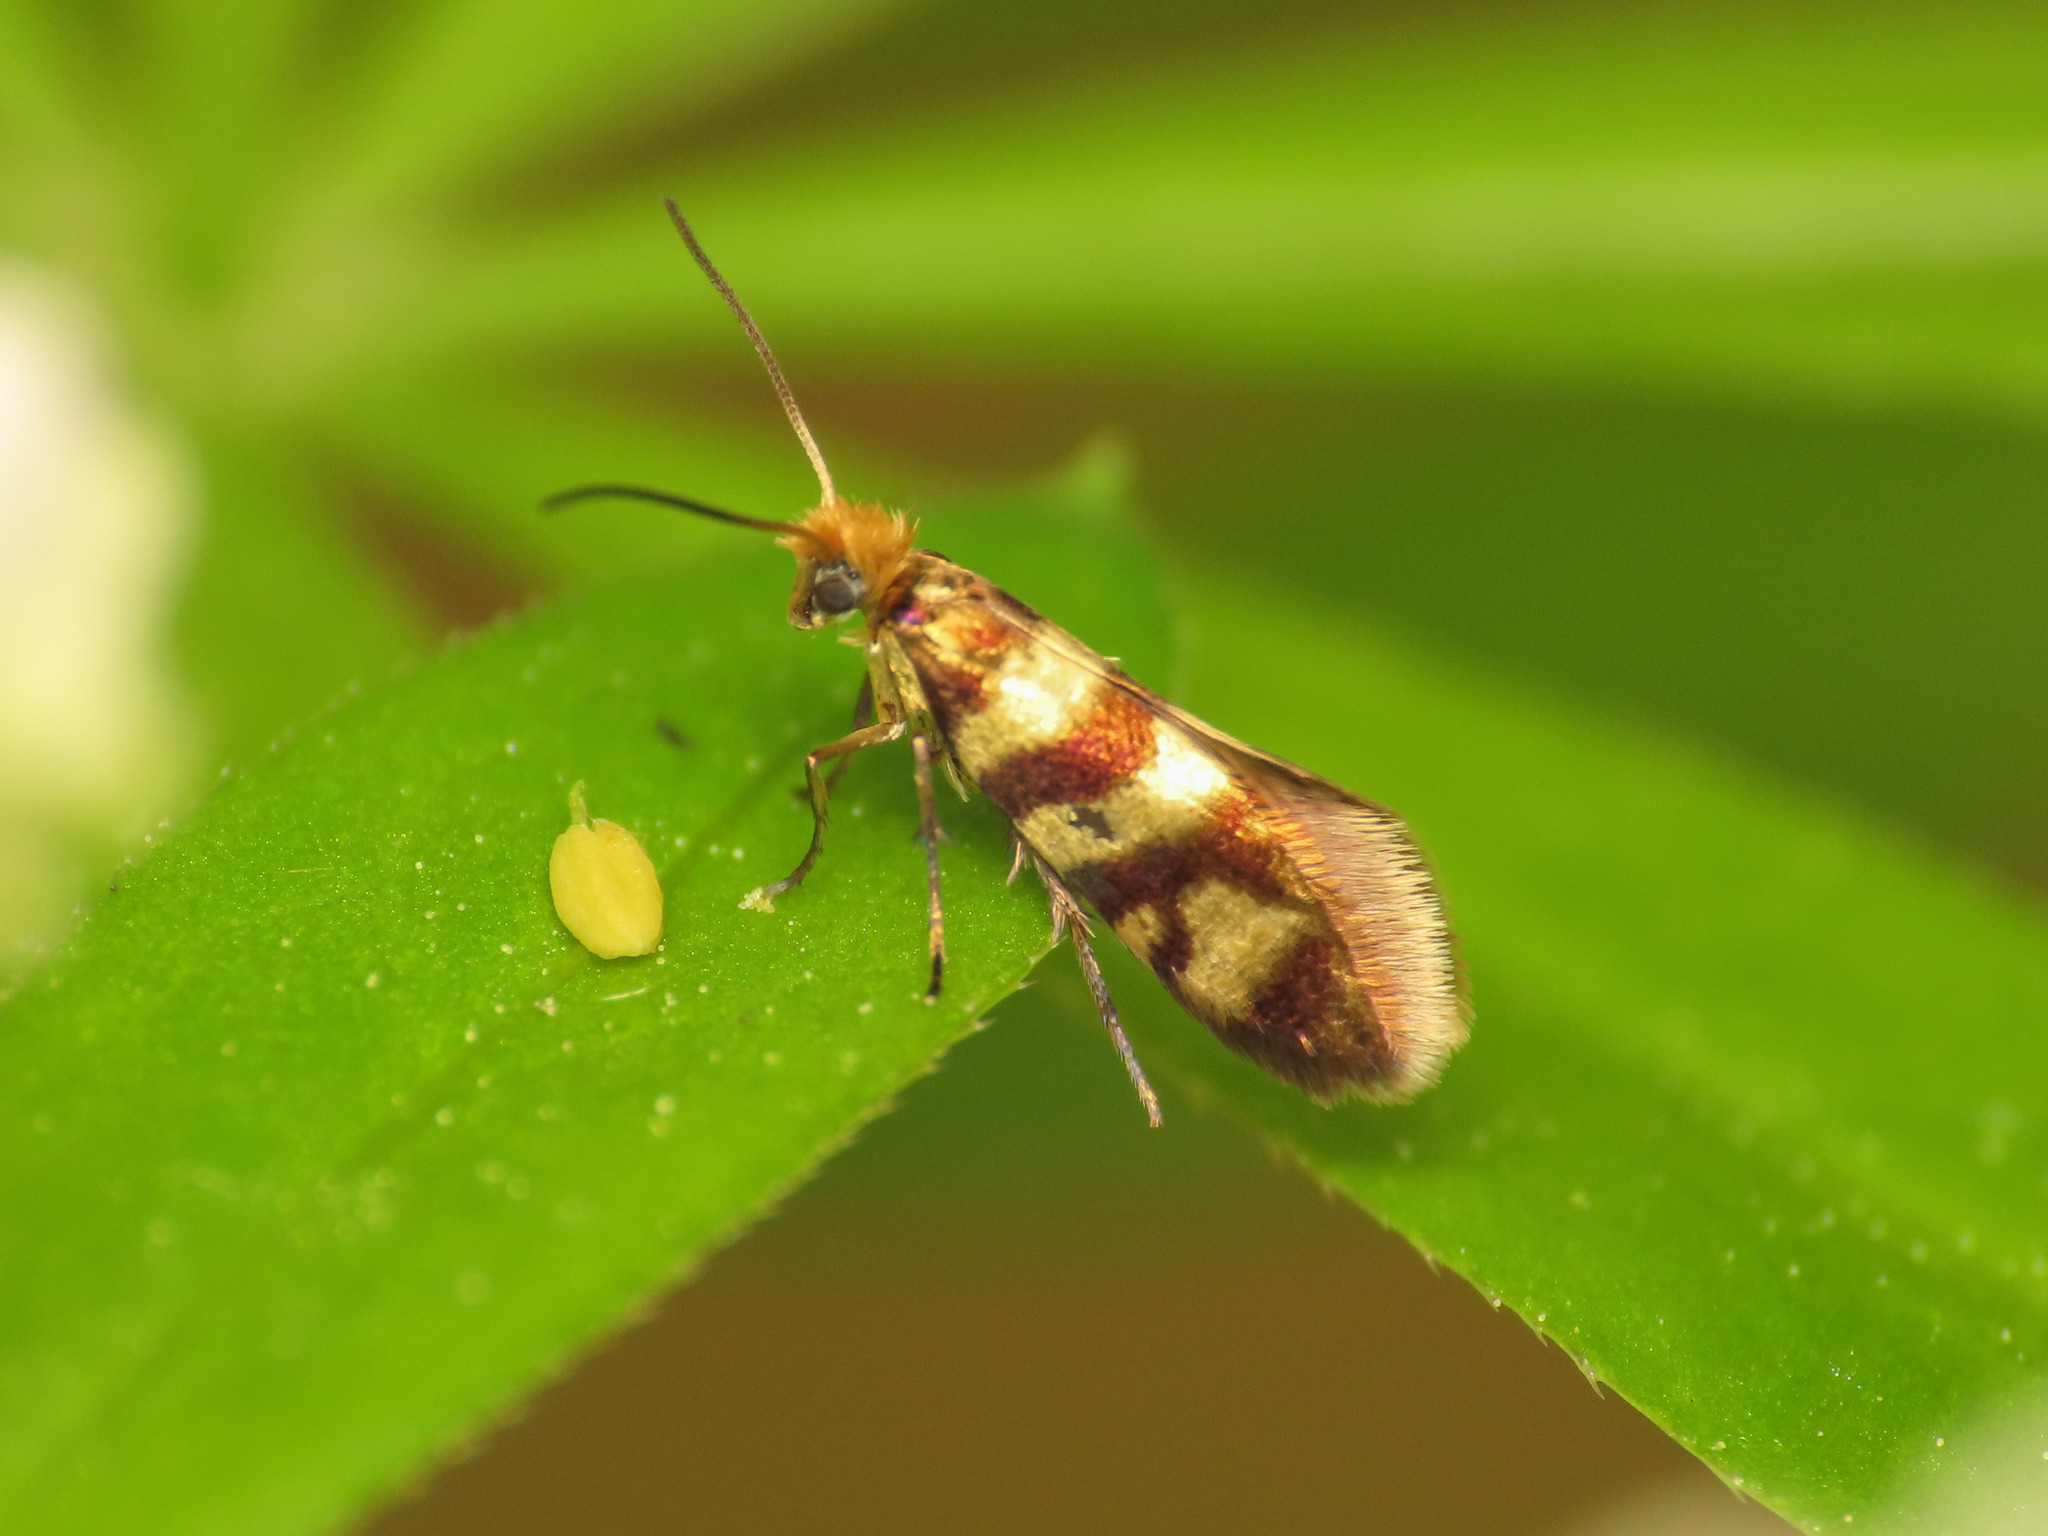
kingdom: Animalia
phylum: Arthropoda
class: Insecta
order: Lepidoptera
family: Micropterigidae
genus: Micropterix
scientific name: Micropterix rothenbachii
